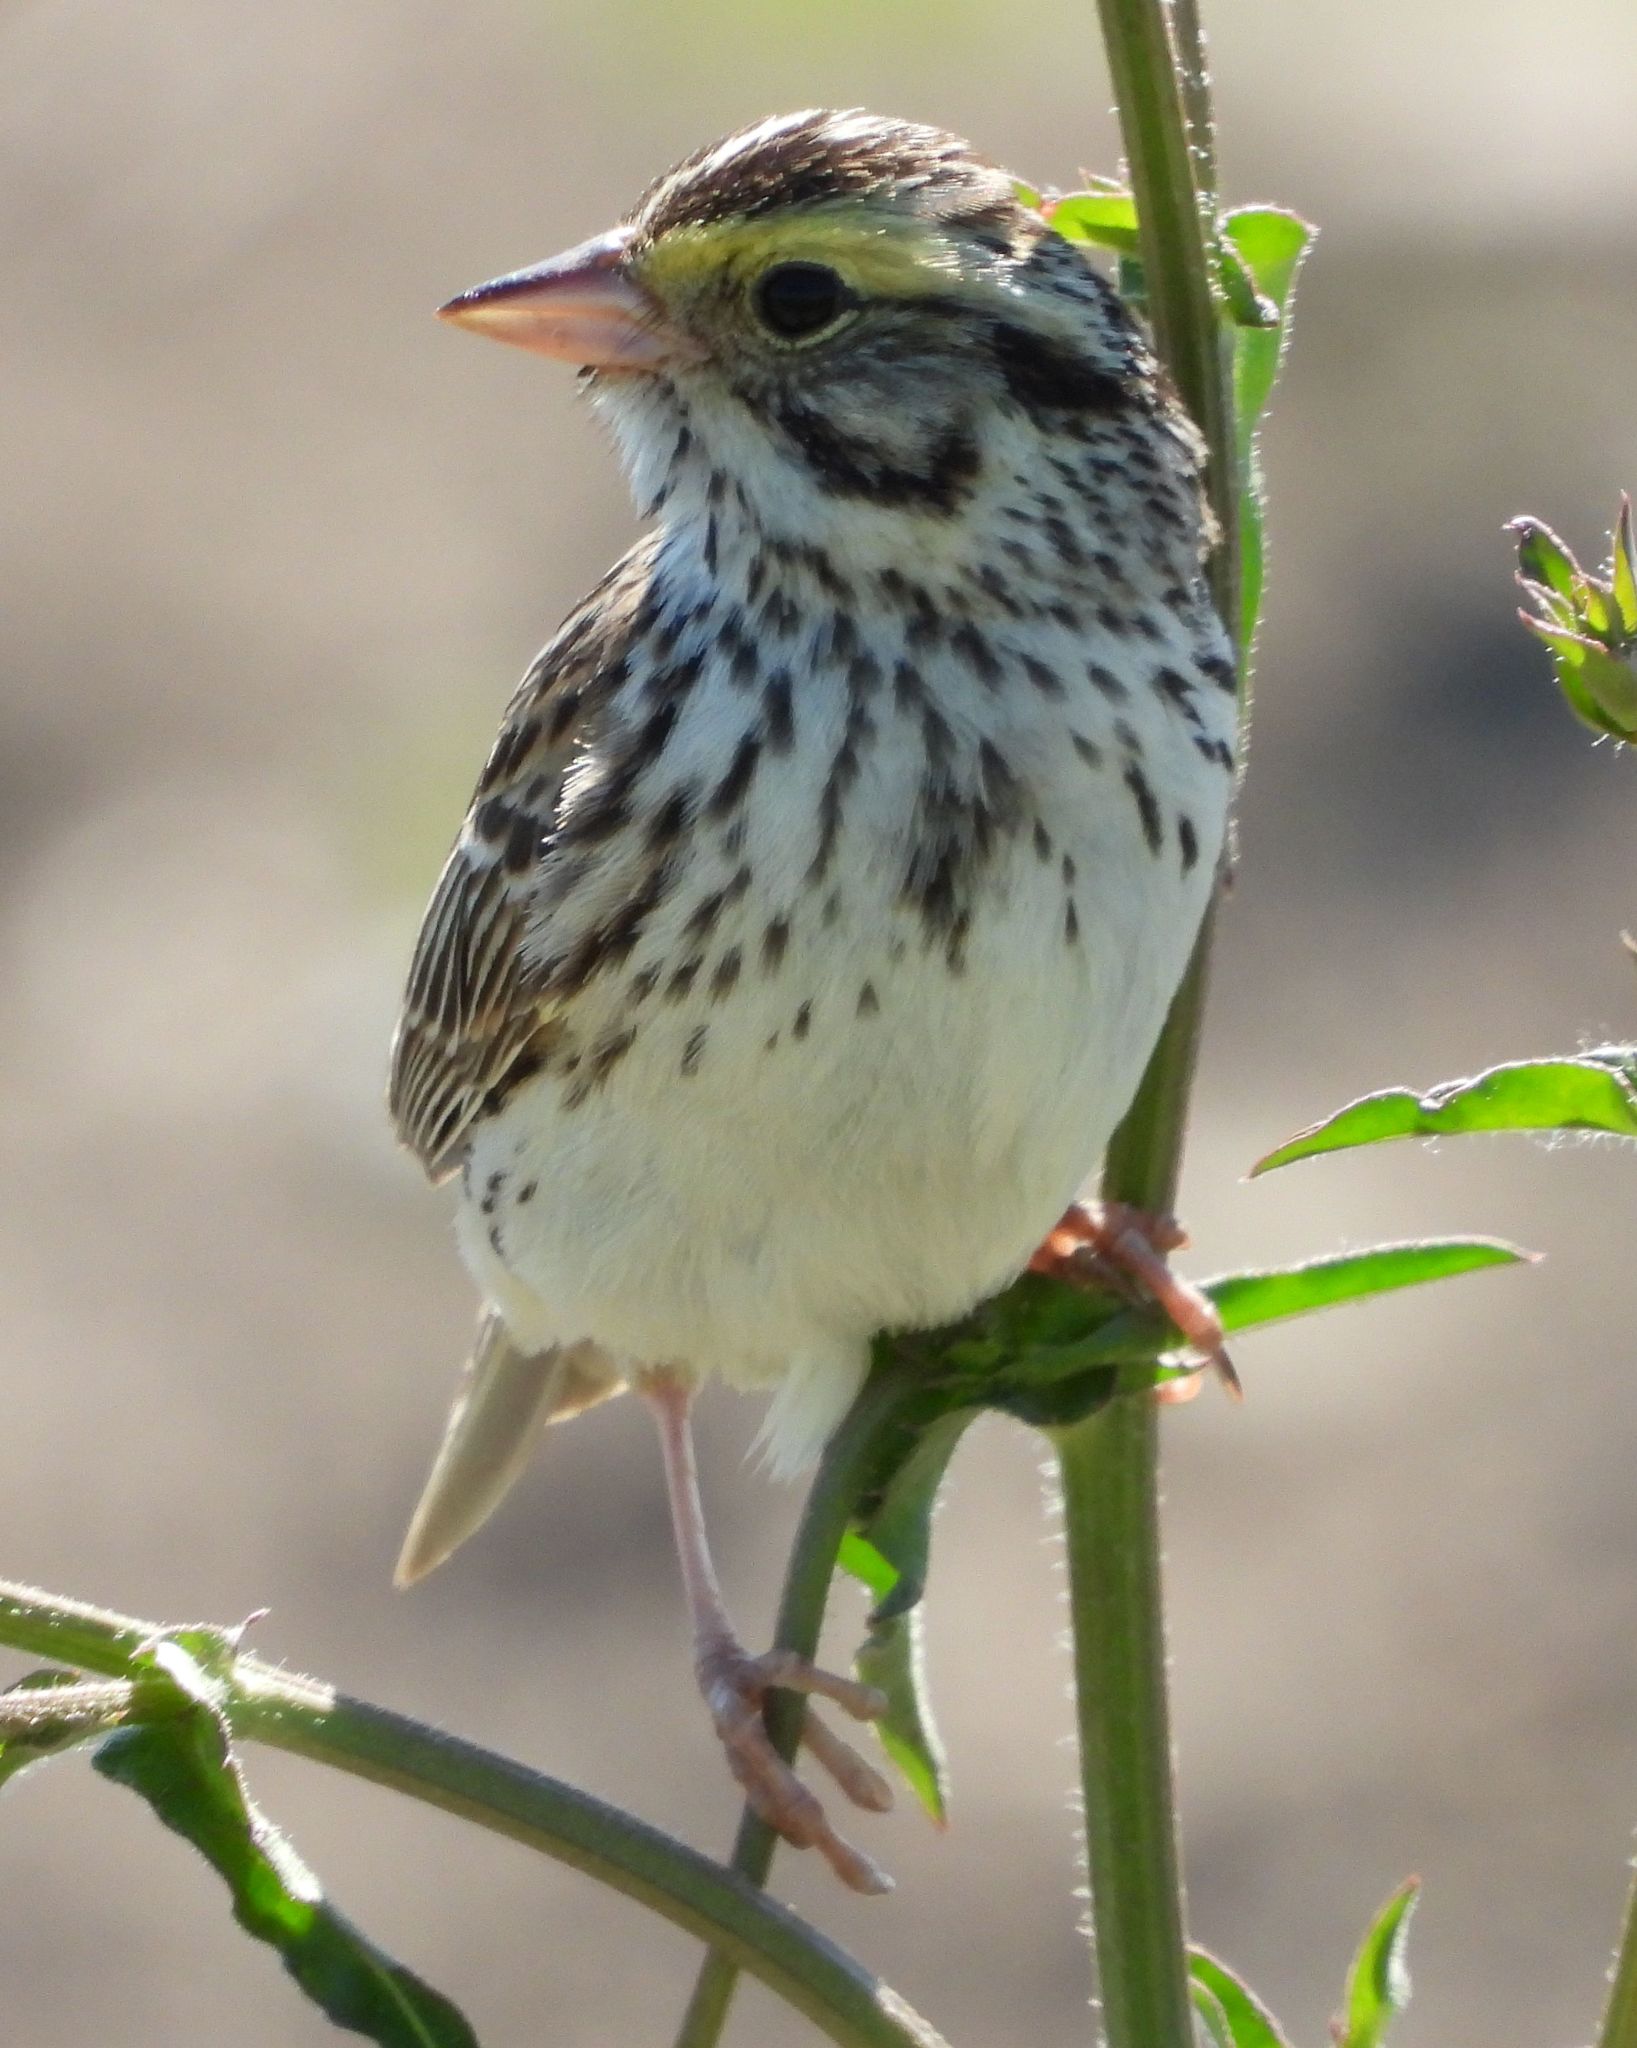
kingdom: Animalia
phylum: Chordata
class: Aves
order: Passeriformes
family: Passerellidae
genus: Passerculus
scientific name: Passerculus sandwichensis
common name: Savannah sparrow
